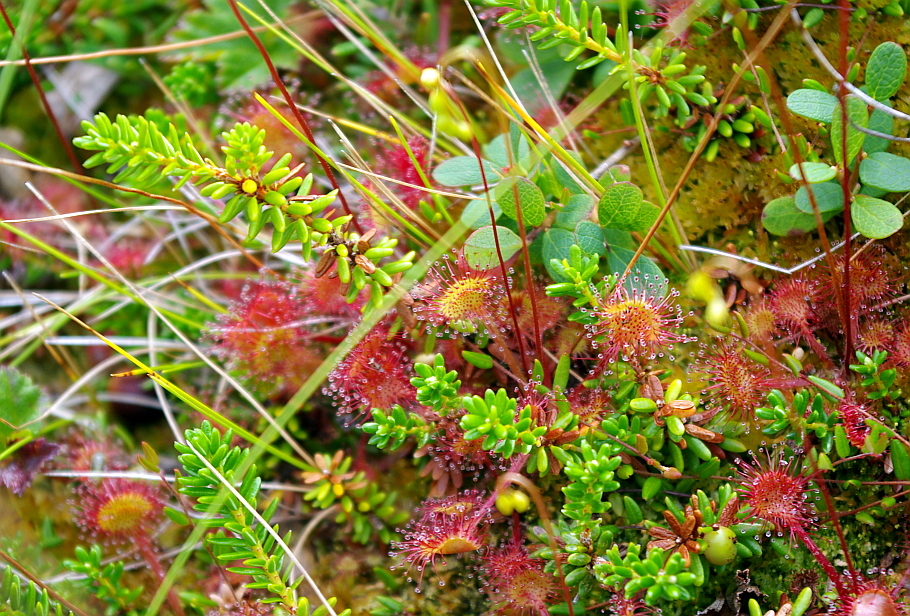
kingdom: Plantae
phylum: Tracheophyta
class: Magnoliopsida
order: Ericales
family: Ericaceae
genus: Empetrum
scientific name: Empetrum nigrum
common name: Black crowberry
